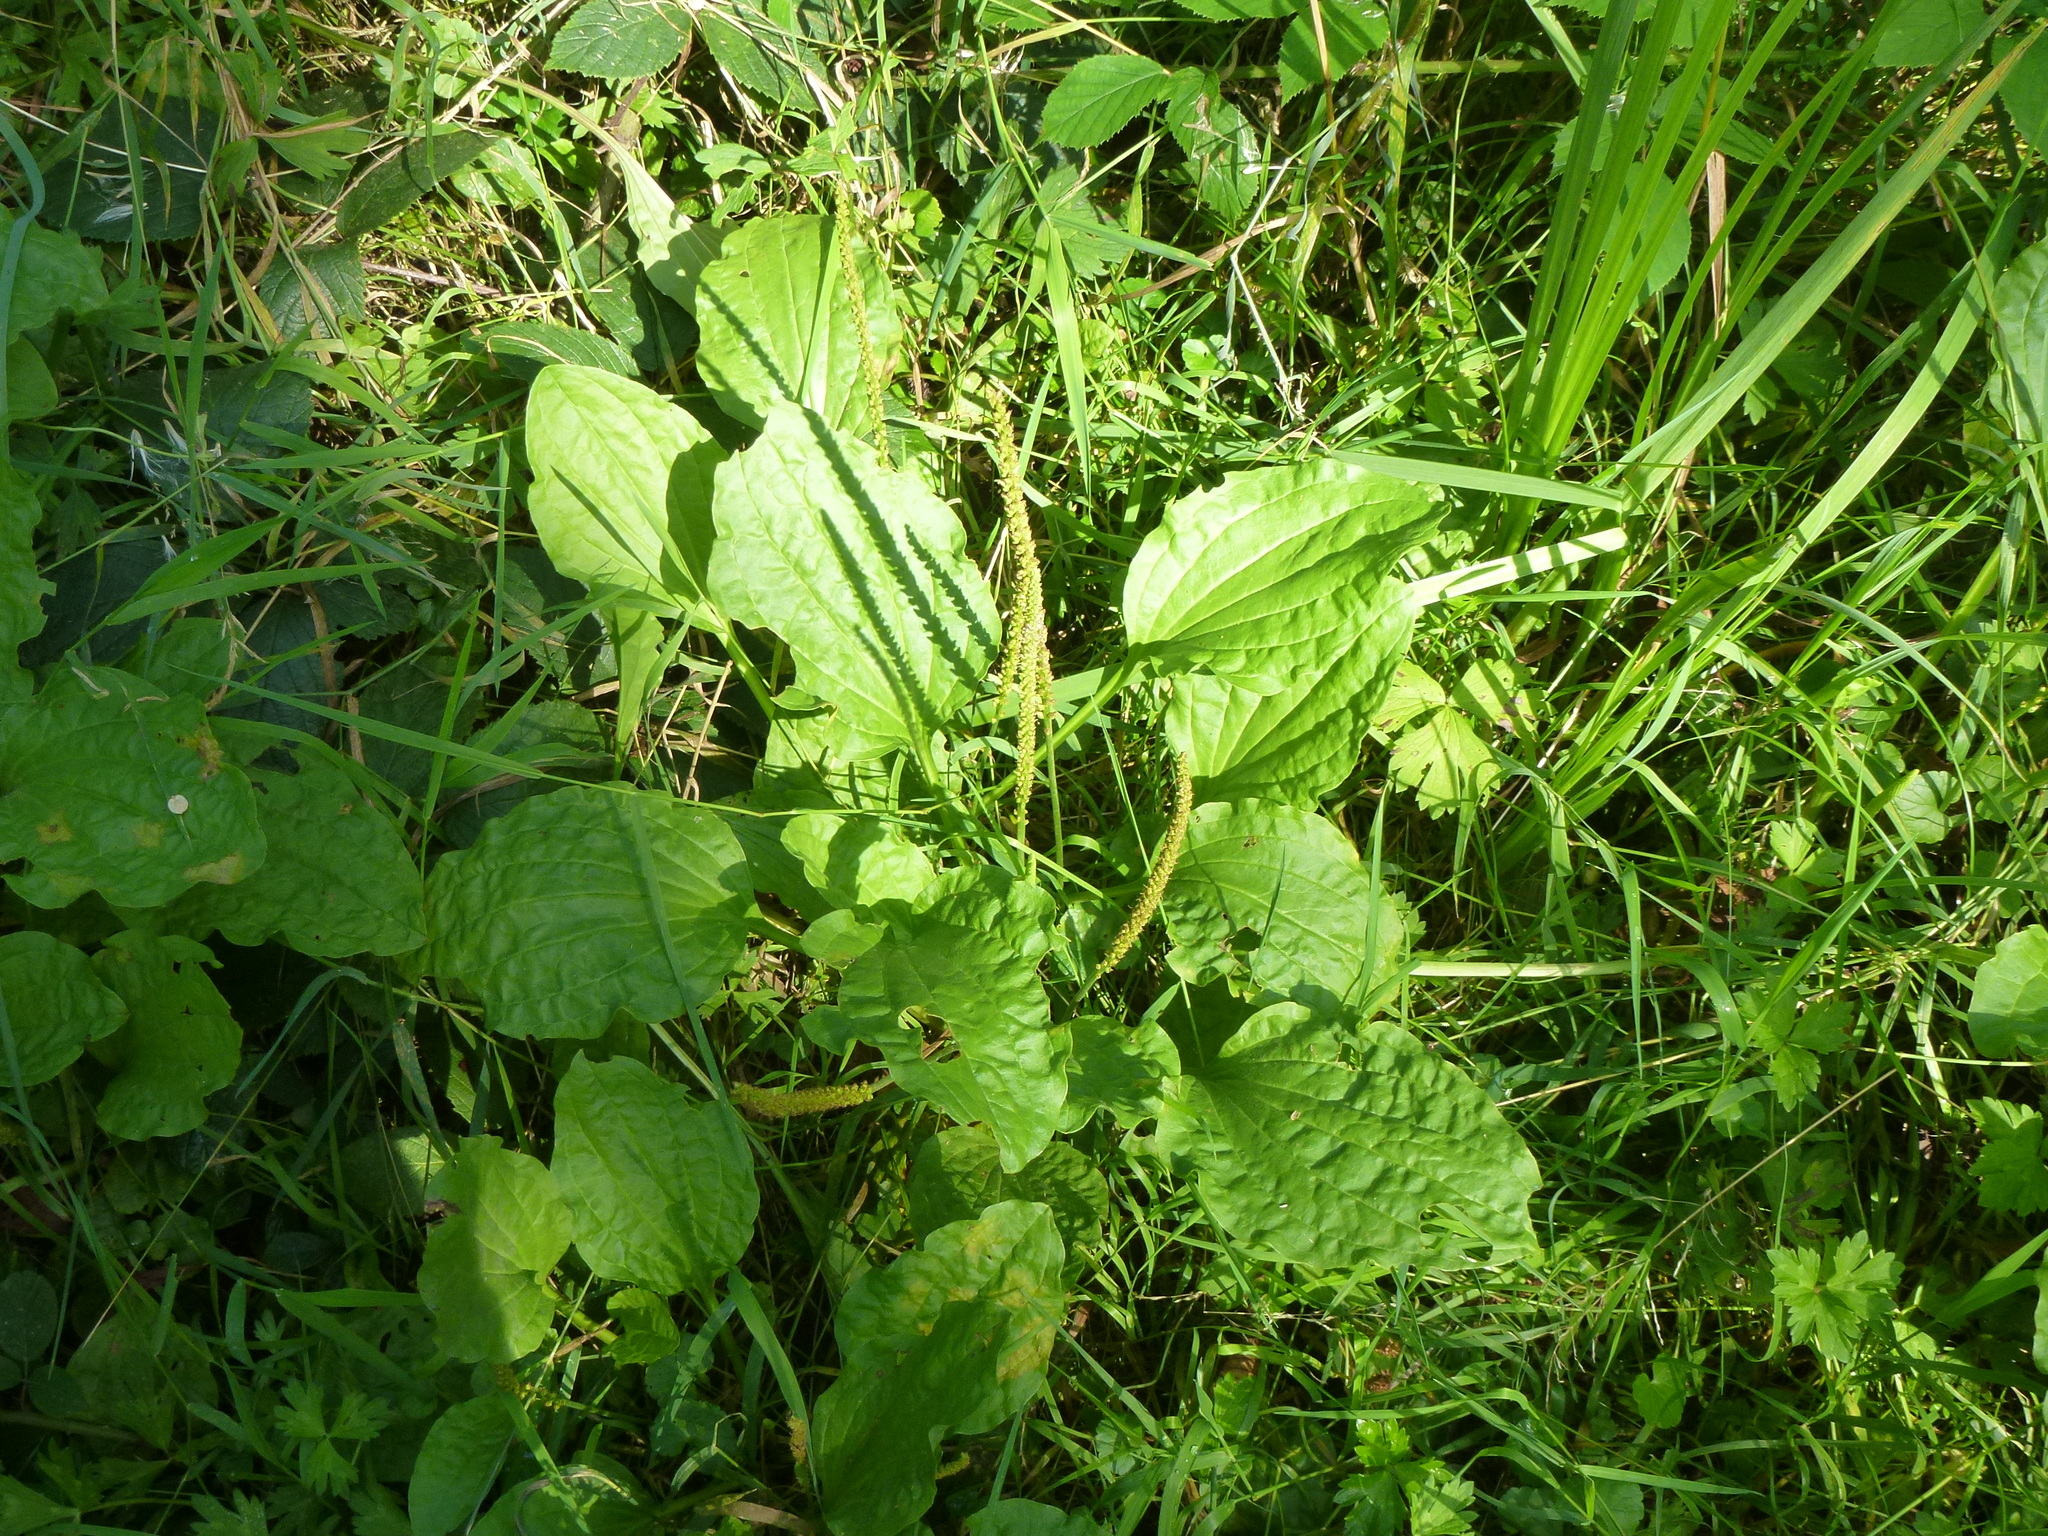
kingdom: Plantae
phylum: Tracheophyta
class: Magnoliopsida
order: Lamiales
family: Plantaginaceae
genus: Plantago
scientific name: Plantago major
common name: Common plantain
